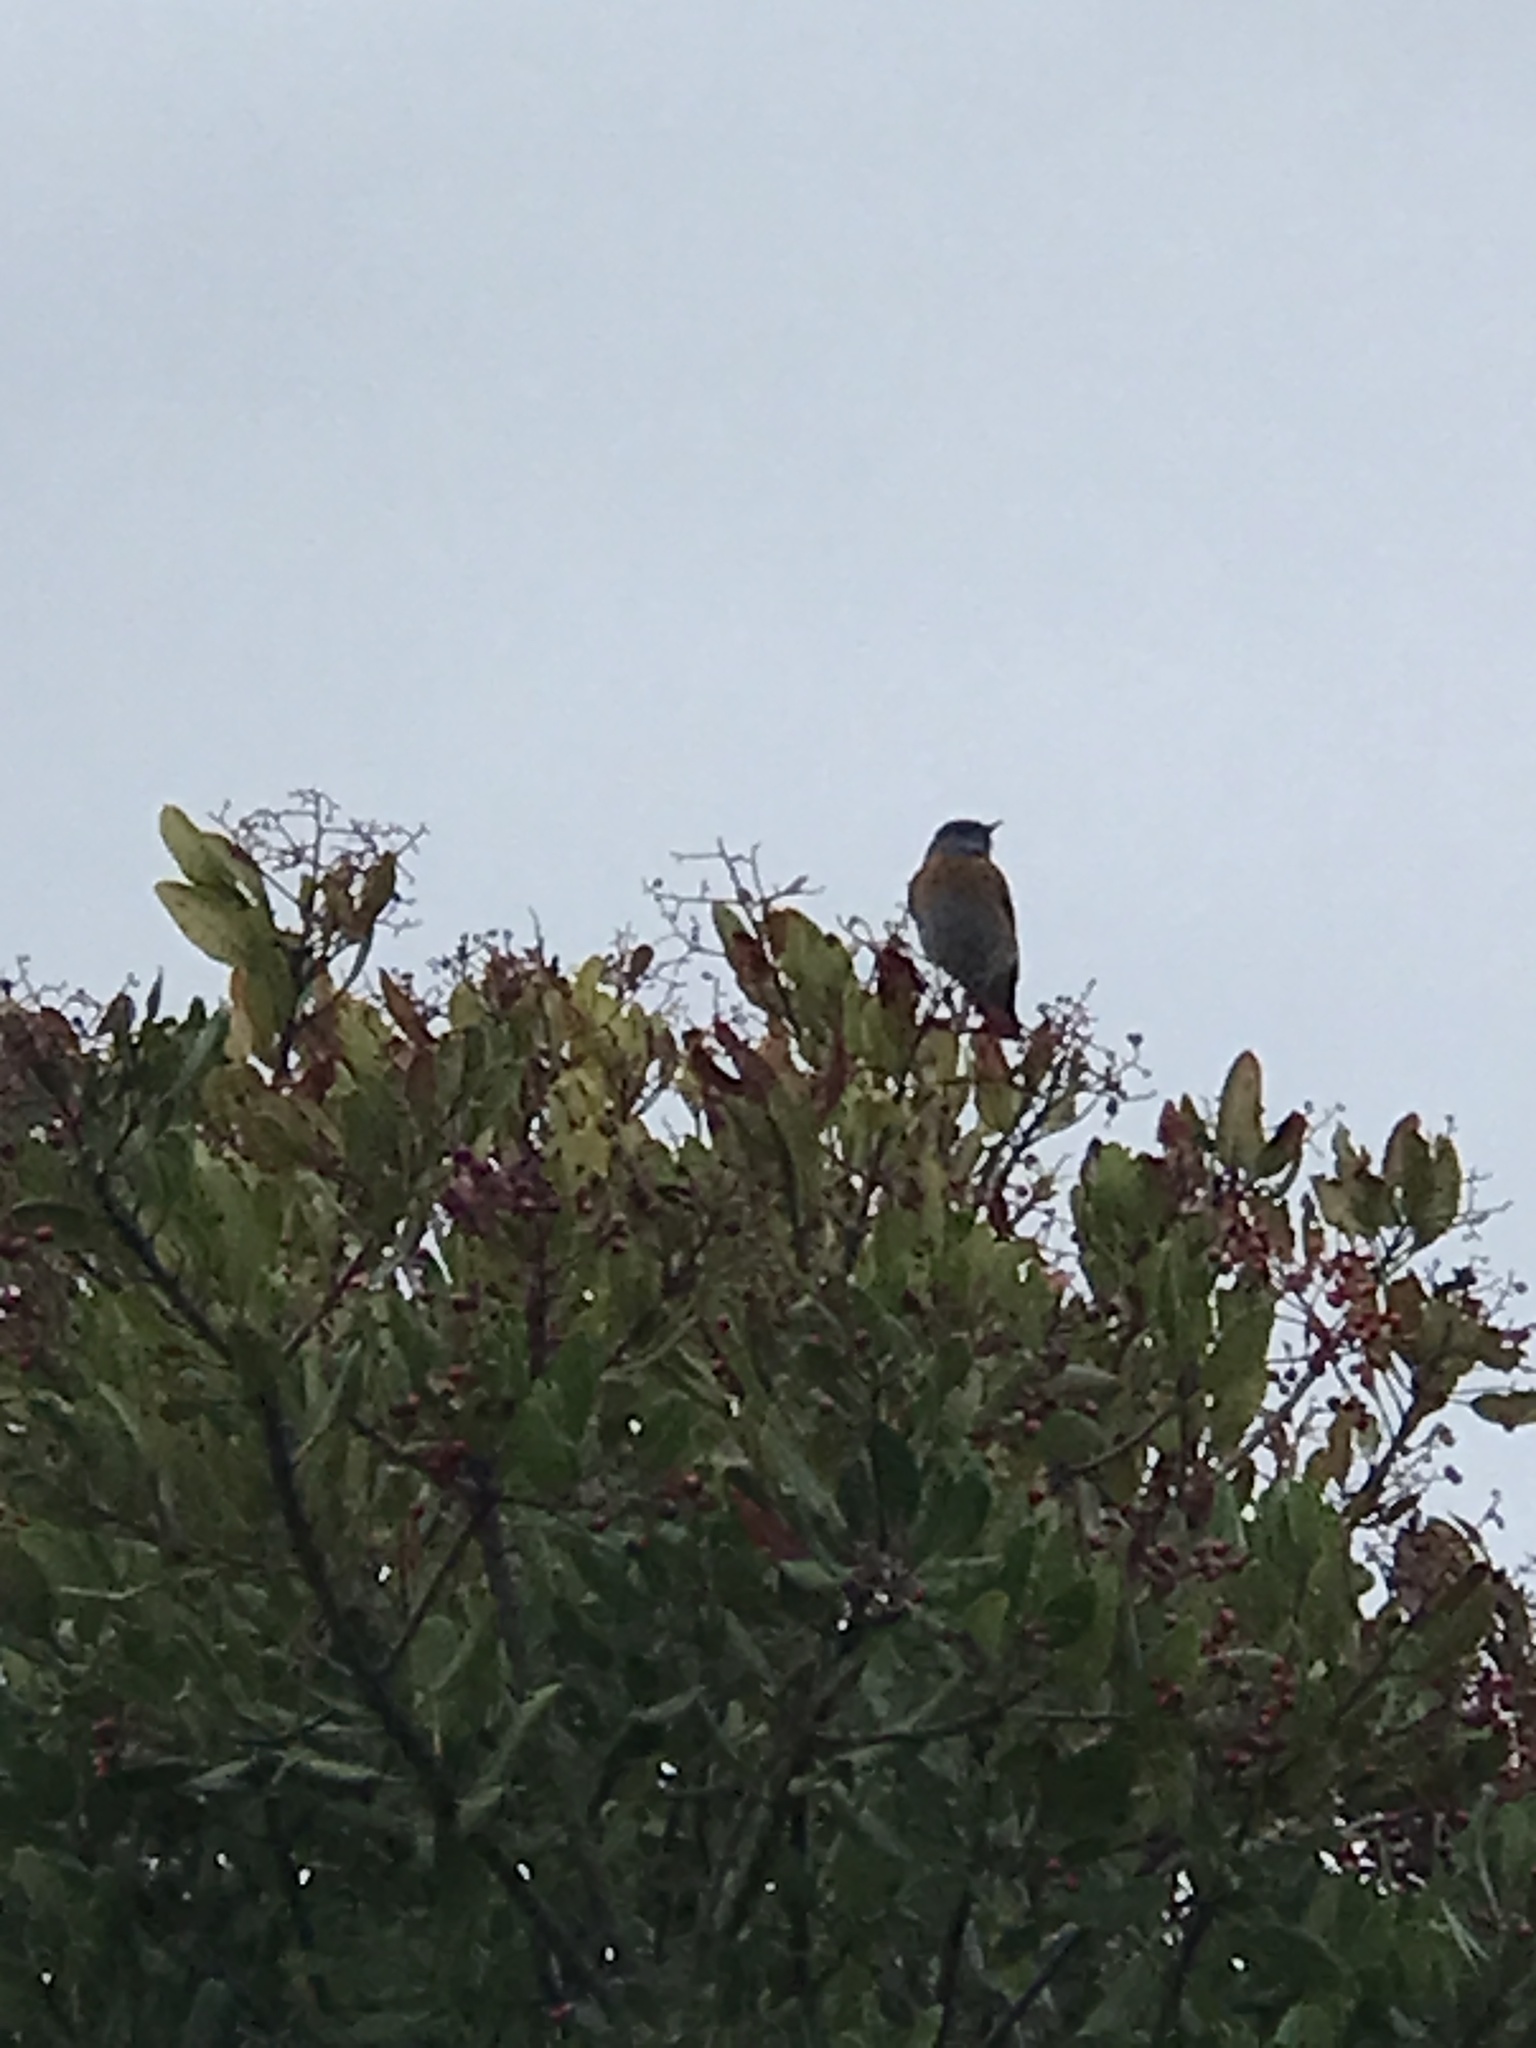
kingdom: Animalia
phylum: Chordata
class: Aves
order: Passeriformes
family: Turdidae
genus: Sialia
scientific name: Sialia mexicana
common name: Western bluebird
